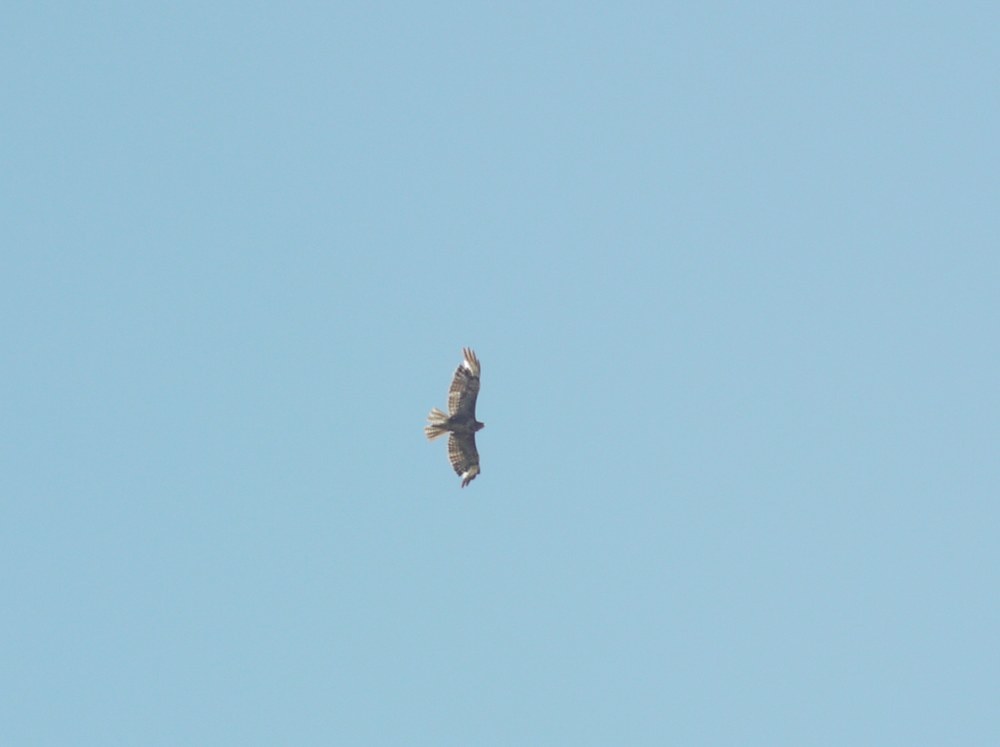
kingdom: Animalia
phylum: Chordata
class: Aves
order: Accipitriformes
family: Accipitridae
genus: Buteo
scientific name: Buteo rufinus
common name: Long-legged buzzard
